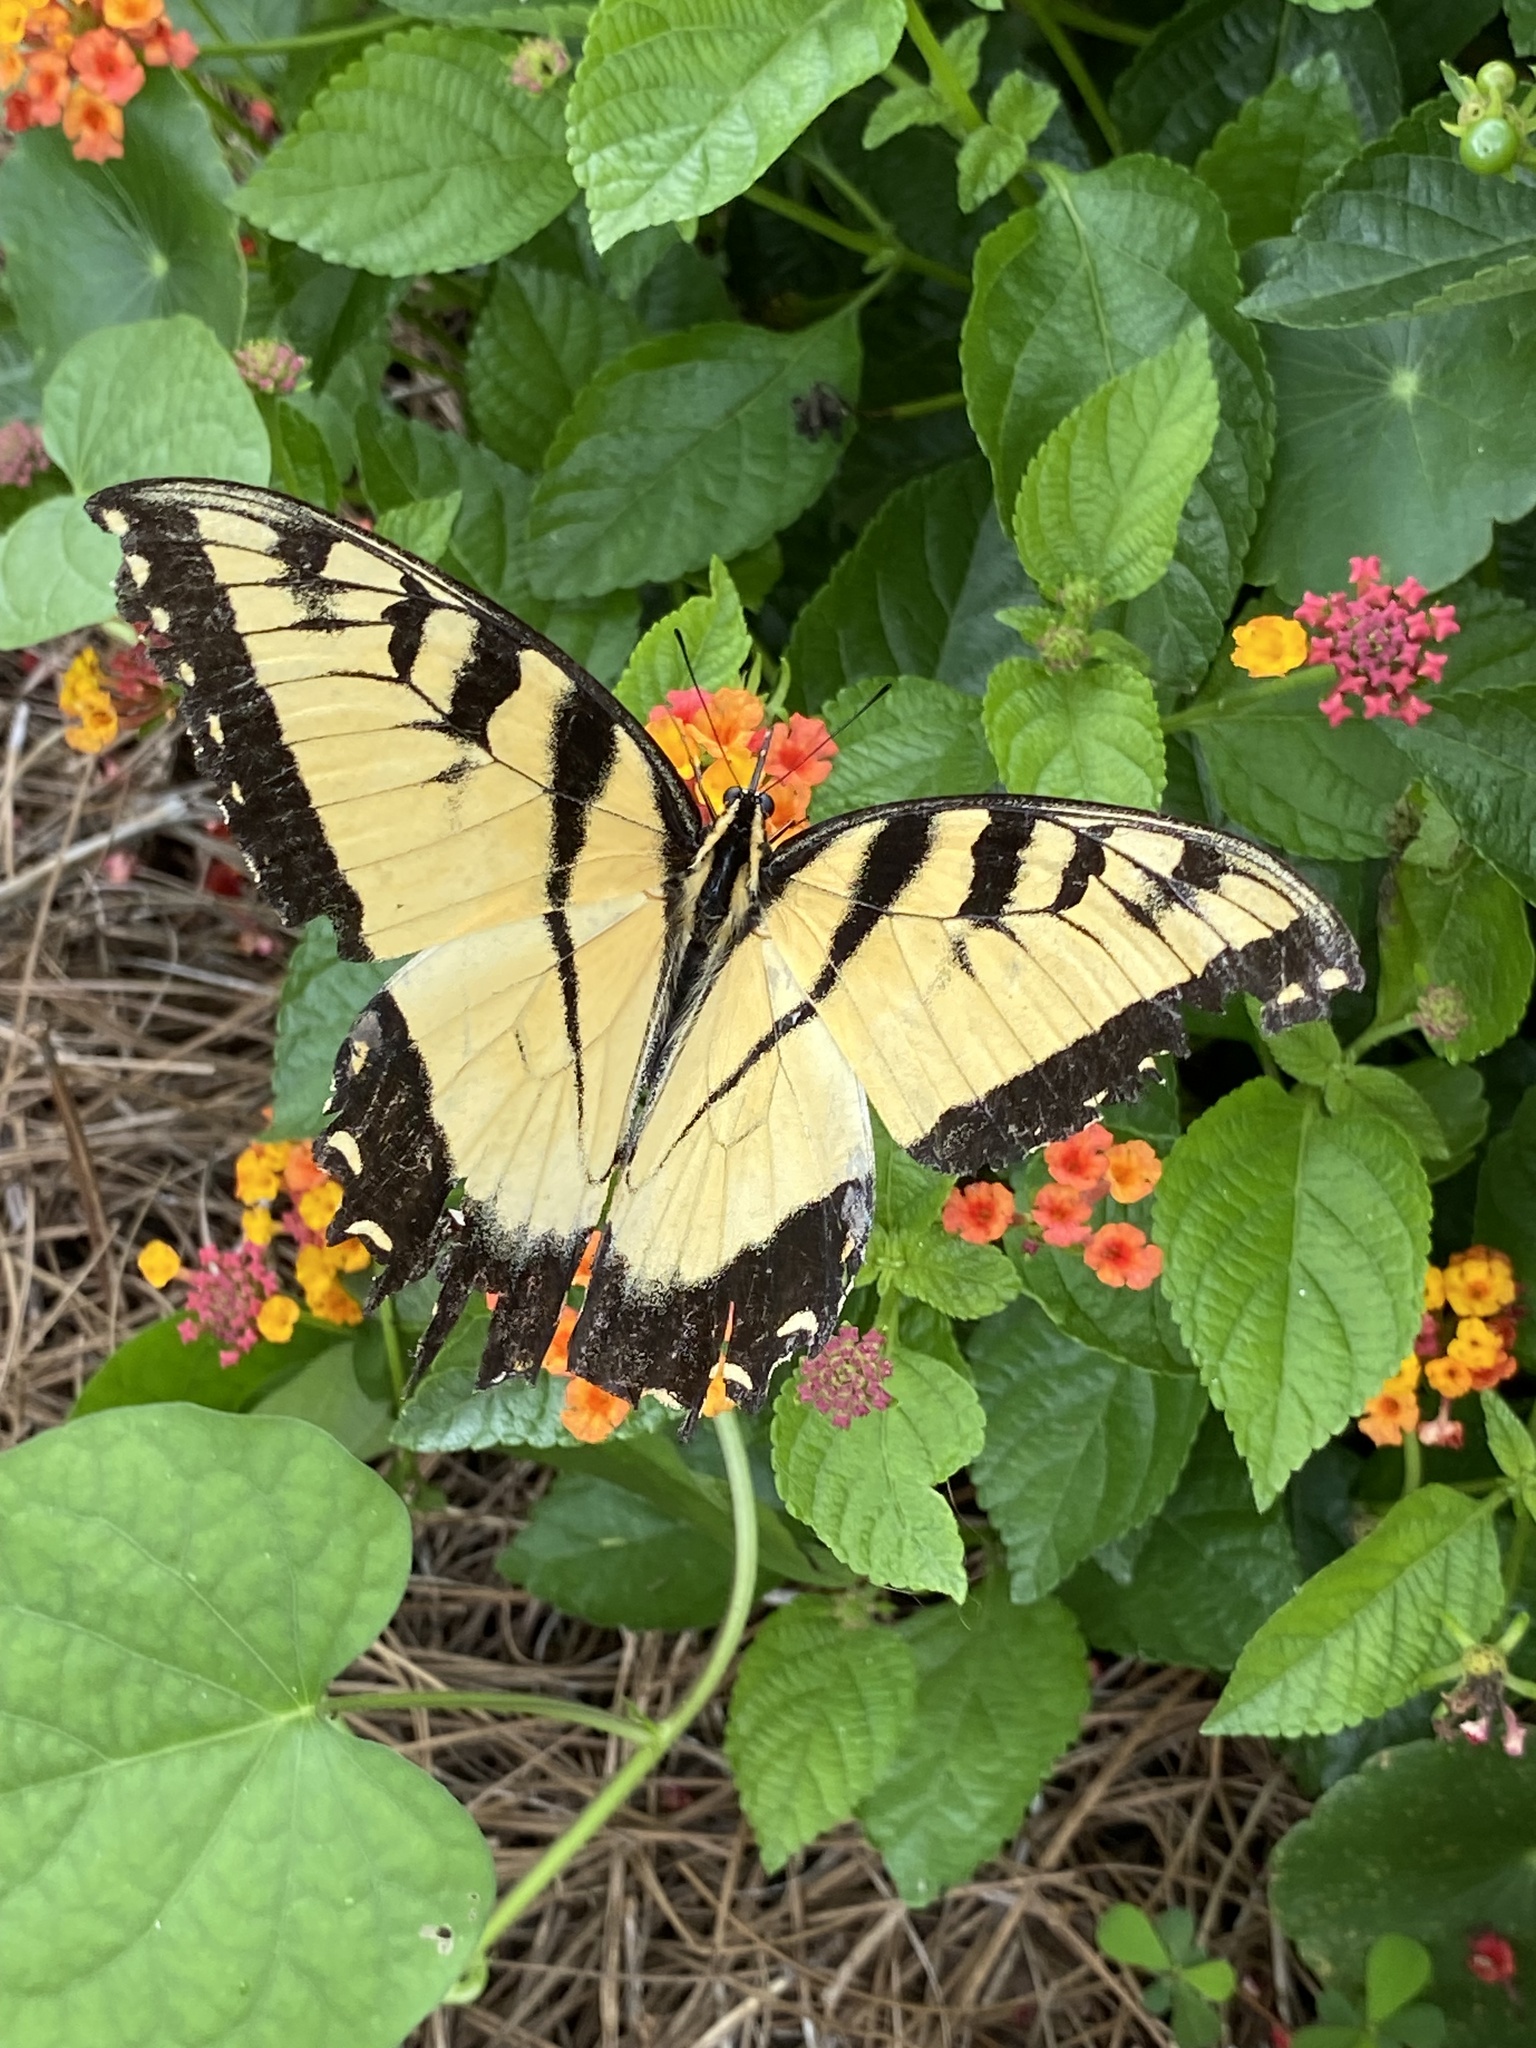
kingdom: Animalia
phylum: Arthropoda
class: Insecta
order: Lepidoptera
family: Papilionidae
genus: Papilio
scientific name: Papilio glaucus
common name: Tiger swallowtail
